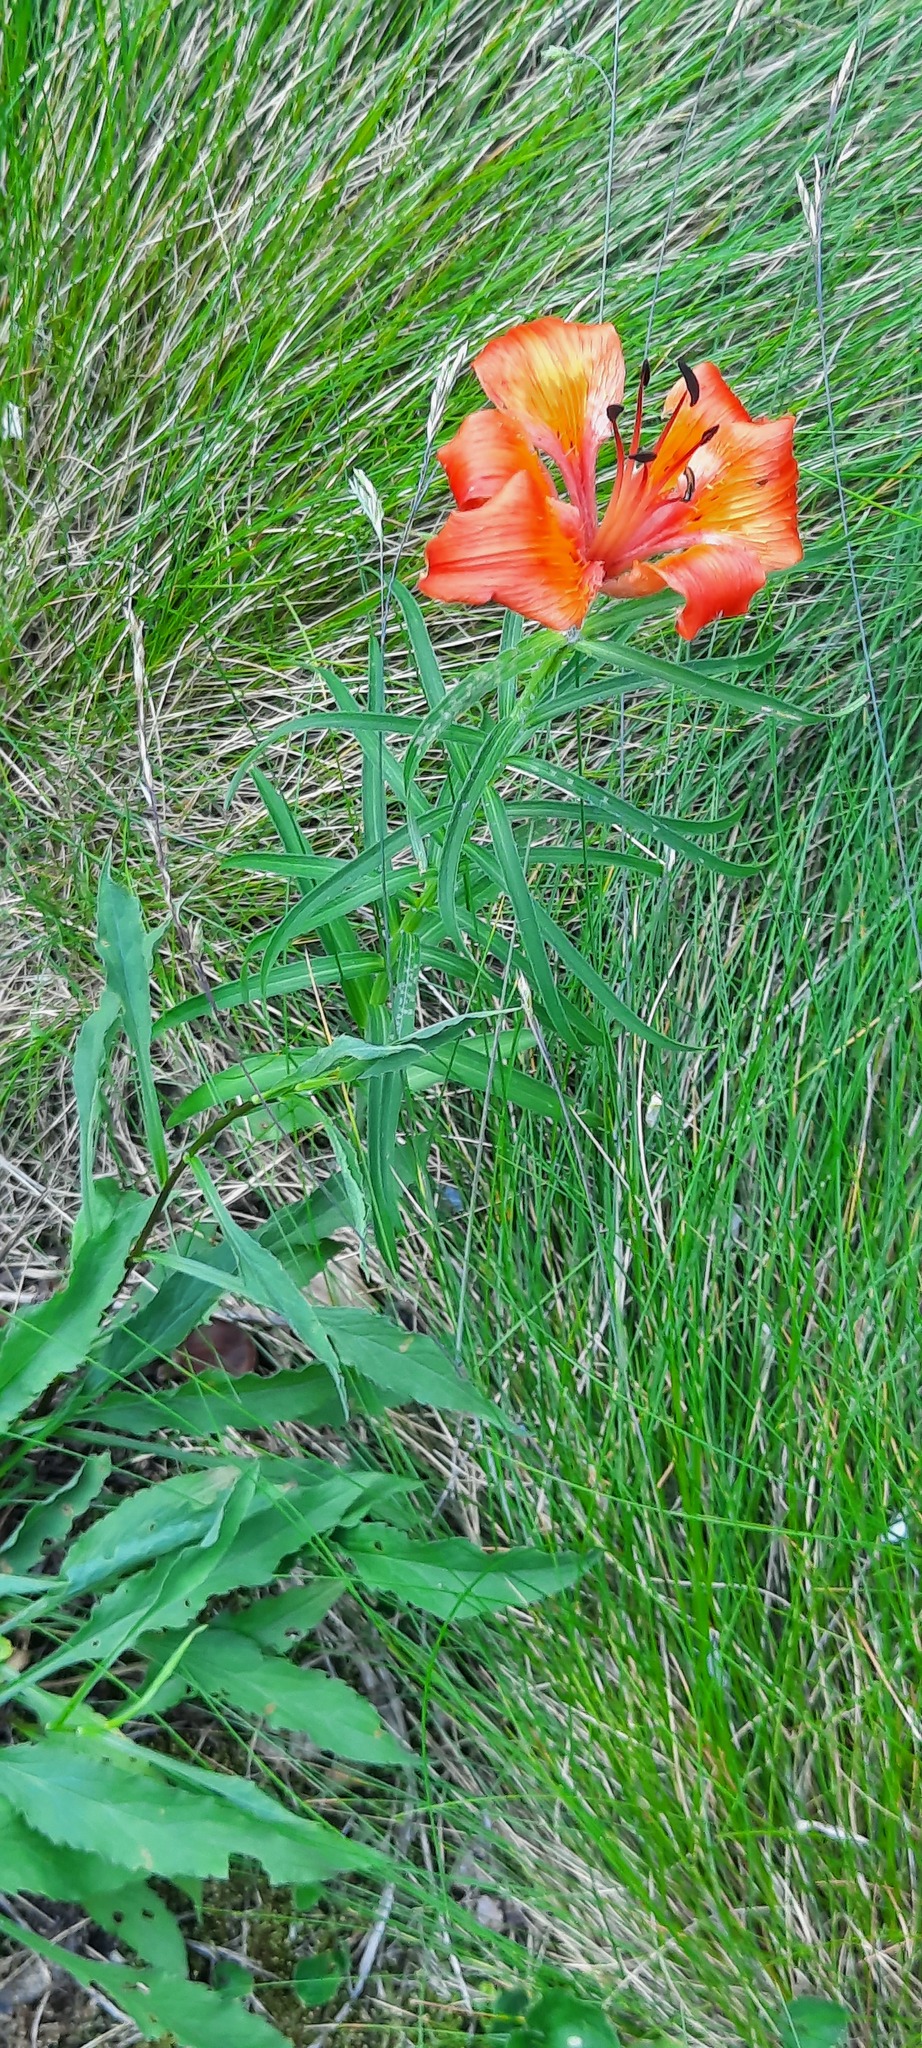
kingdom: Plantae
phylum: Tracheophyta
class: Liliopsida
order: Liliales
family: Liliaceae
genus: Lilium
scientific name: Lilium bulbiferum
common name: Orange lily
